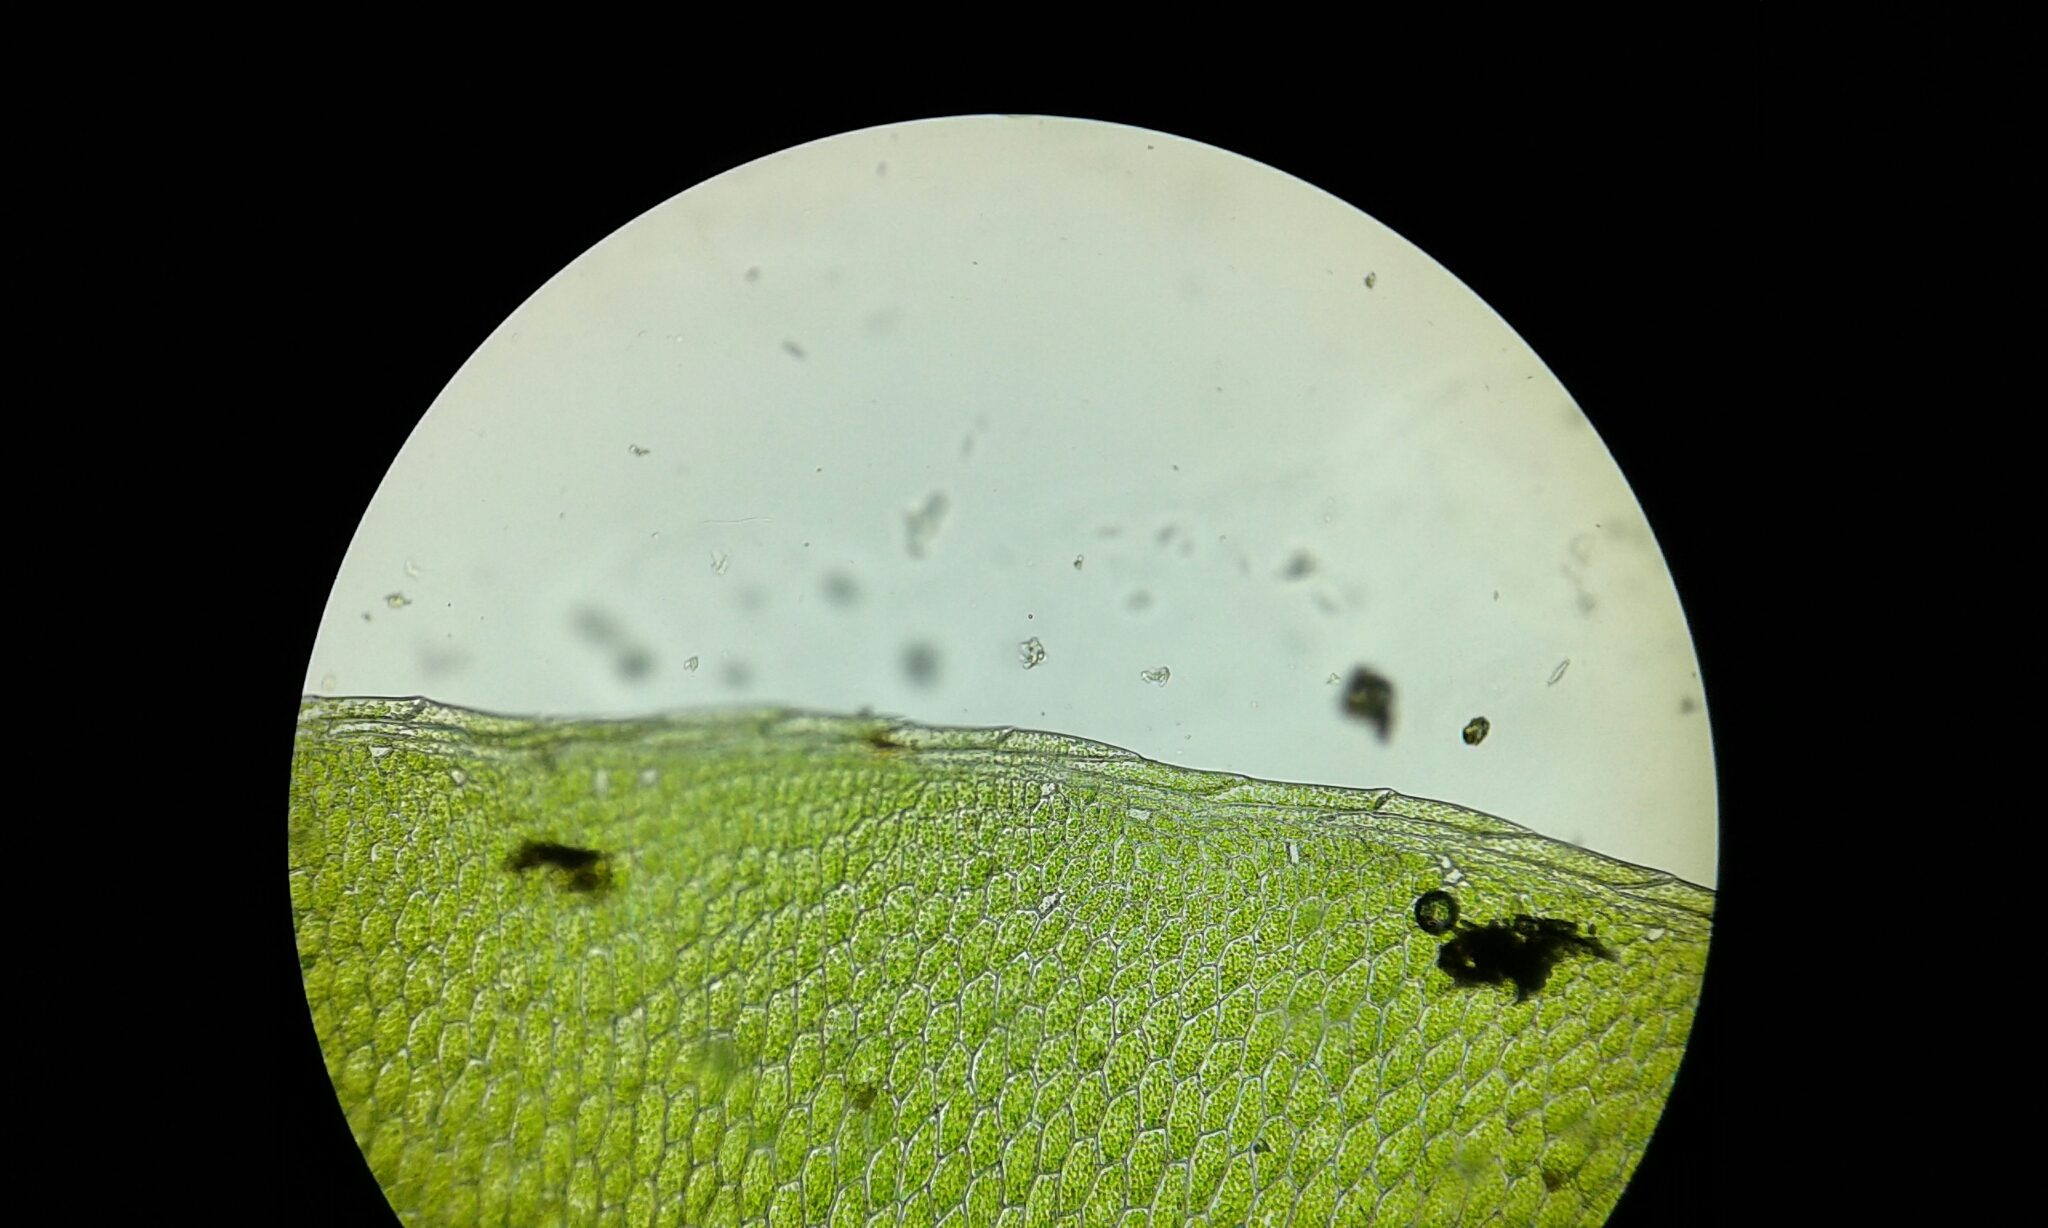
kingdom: Plantae
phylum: Bryophyta
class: Bryopsida
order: Bryales
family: Mniaceae
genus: Rhizomnium
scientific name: Rhizomnium punctatum
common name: Dotted leafy moss
